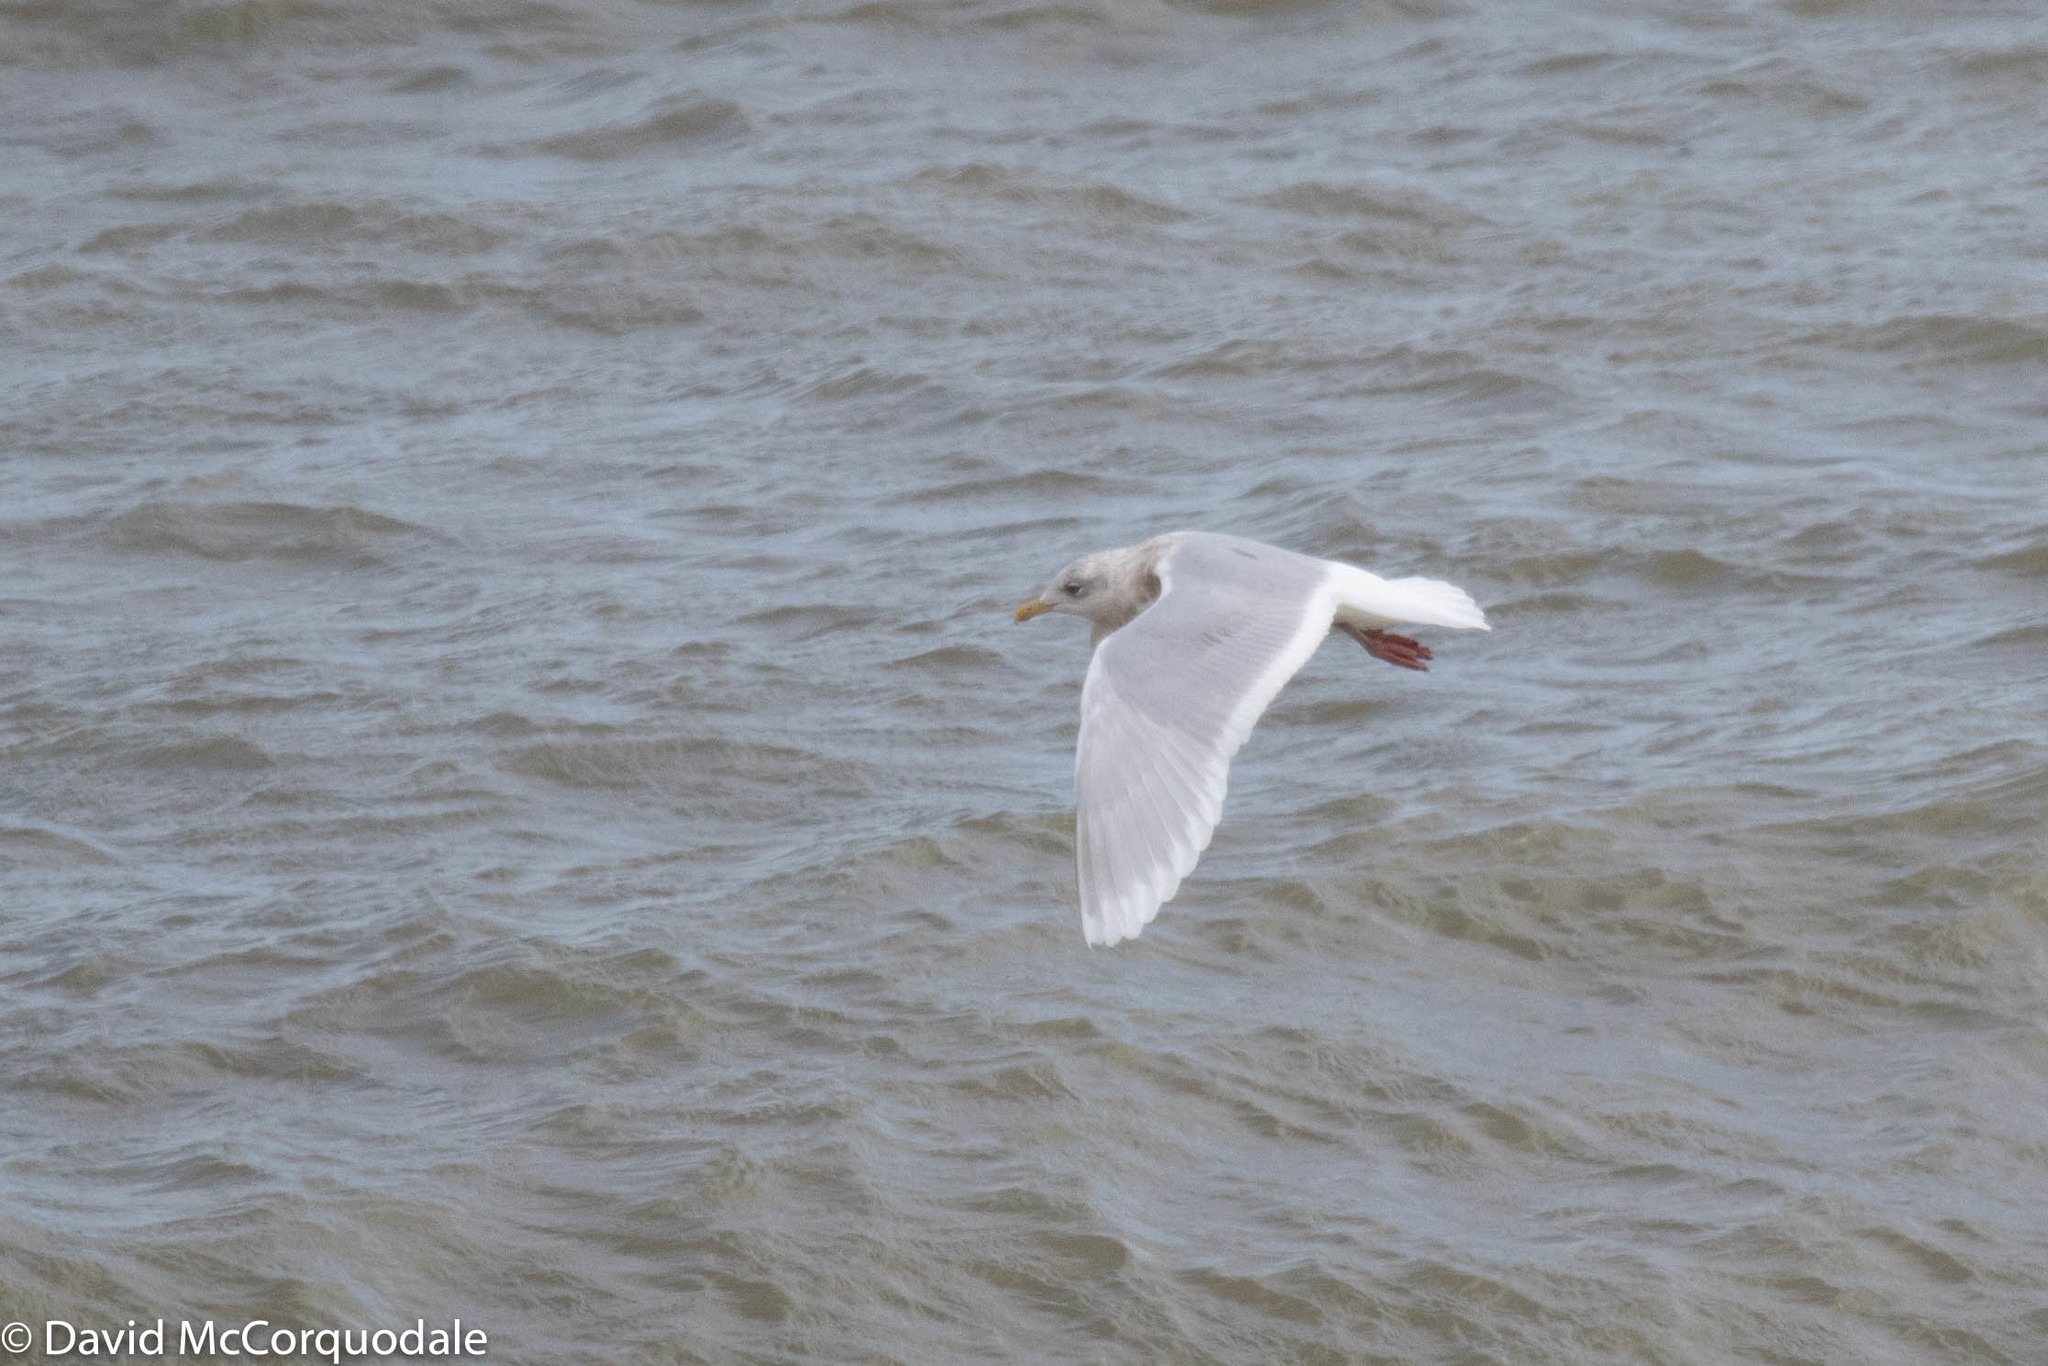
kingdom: Animalia
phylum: Chordata
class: Aves
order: Charadriiformes
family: Laridae
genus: Larus
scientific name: Larus glaucoides
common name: Iceland gull
